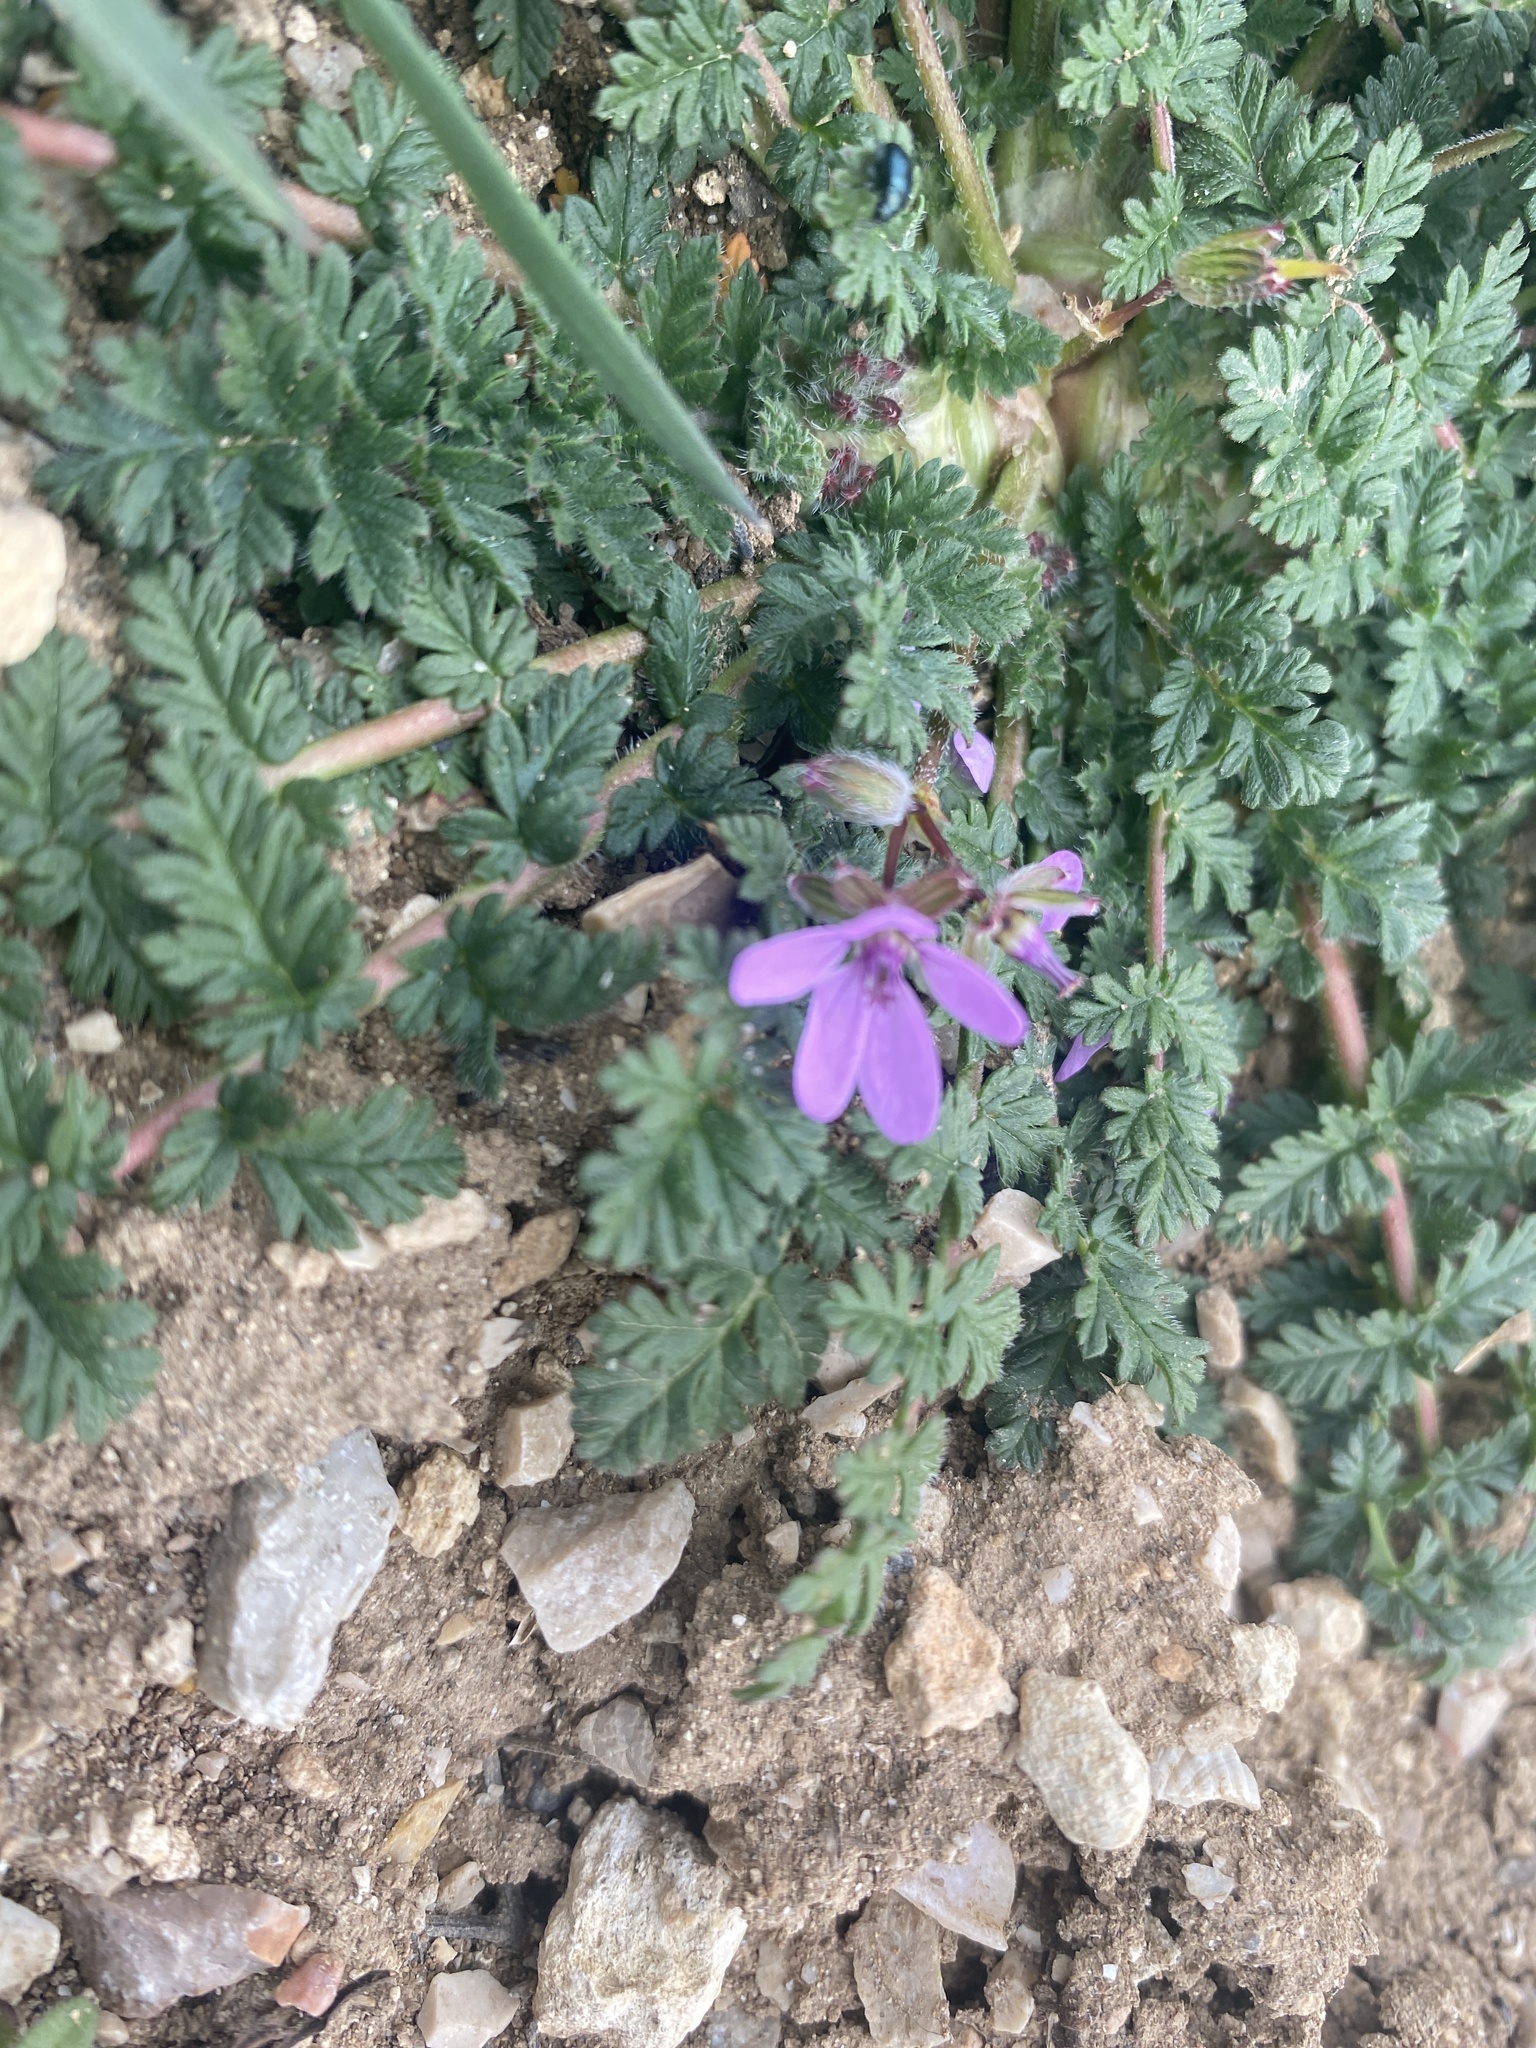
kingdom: Plantae
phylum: Tracheophyta
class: Magnoliopsida
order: Geraniales
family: Geraniaceae
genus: Erodium
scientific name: Erodium cicutarium
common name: Common stork's-bill
